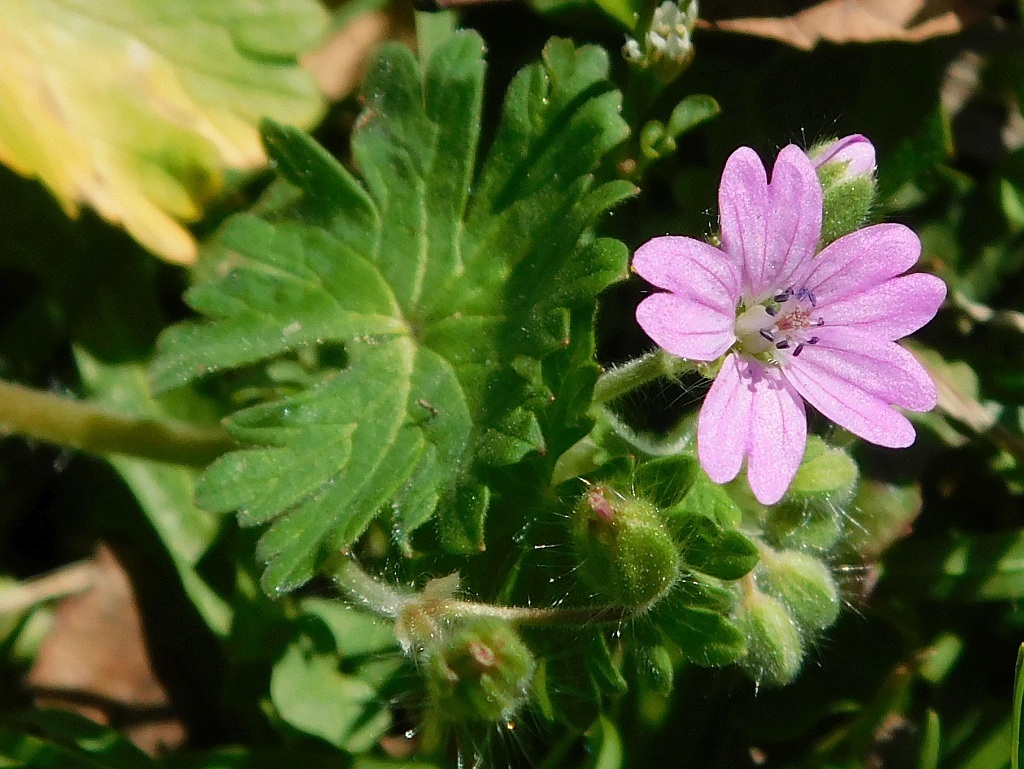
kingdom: Plantae
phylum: Tracheophyta
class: Magnoliopsida
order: Geraniales
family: Geraniaceae
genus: Geranium
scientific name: Geranium molle
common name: Dove's-foot crane's-bill
